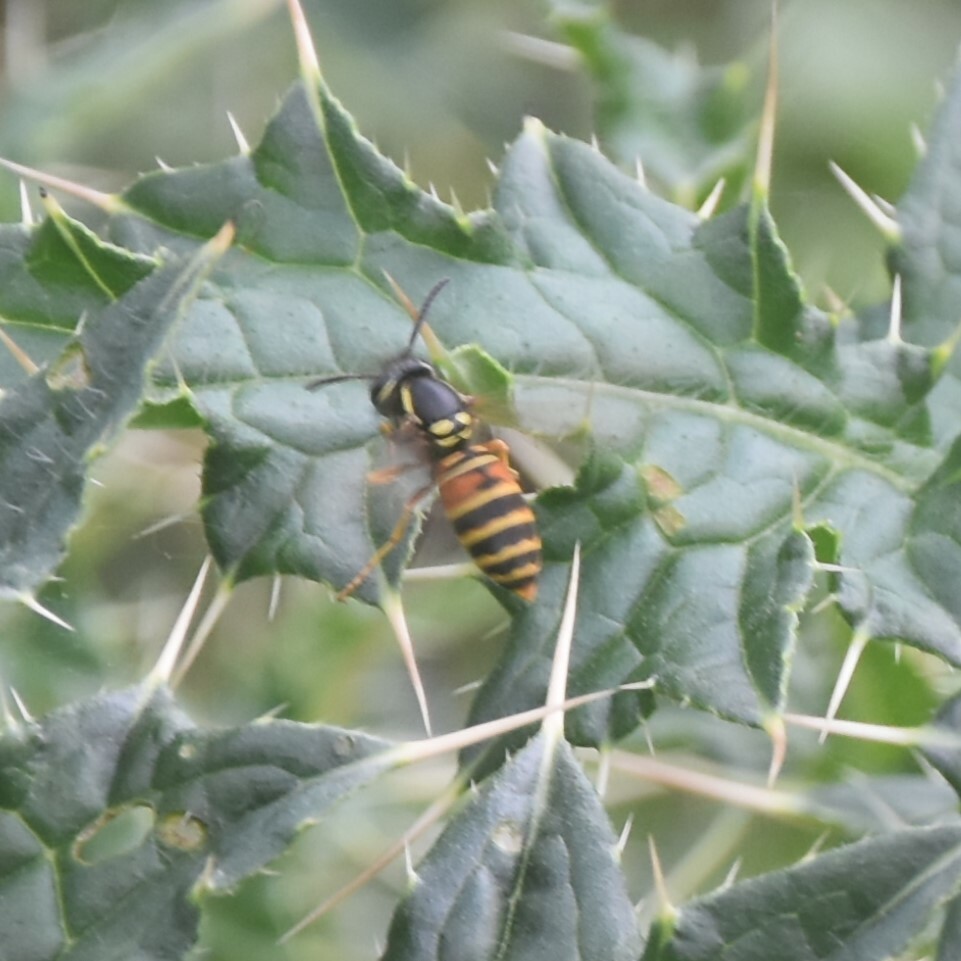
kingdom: Animalia
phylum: Arthropoda
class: Insecta
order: Hymenoptera
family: Vespidae
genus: Vespula
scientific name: Vespula nursei
